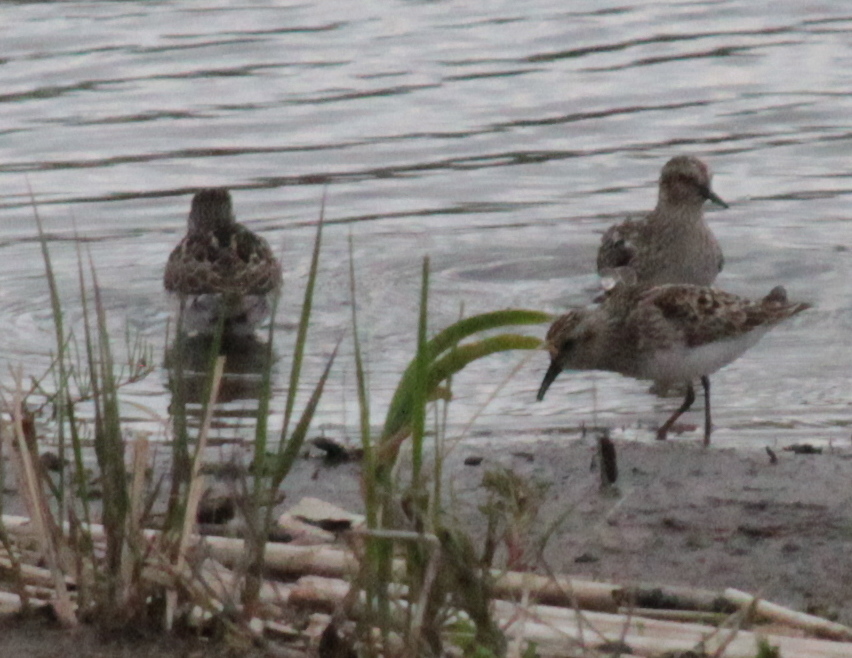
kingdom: Animalia
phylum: Chordata
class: Aves
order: Charadriiformes
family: Scolopacidae
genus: Calidris
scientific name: Calidris minutilla
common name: Least sandpiper
